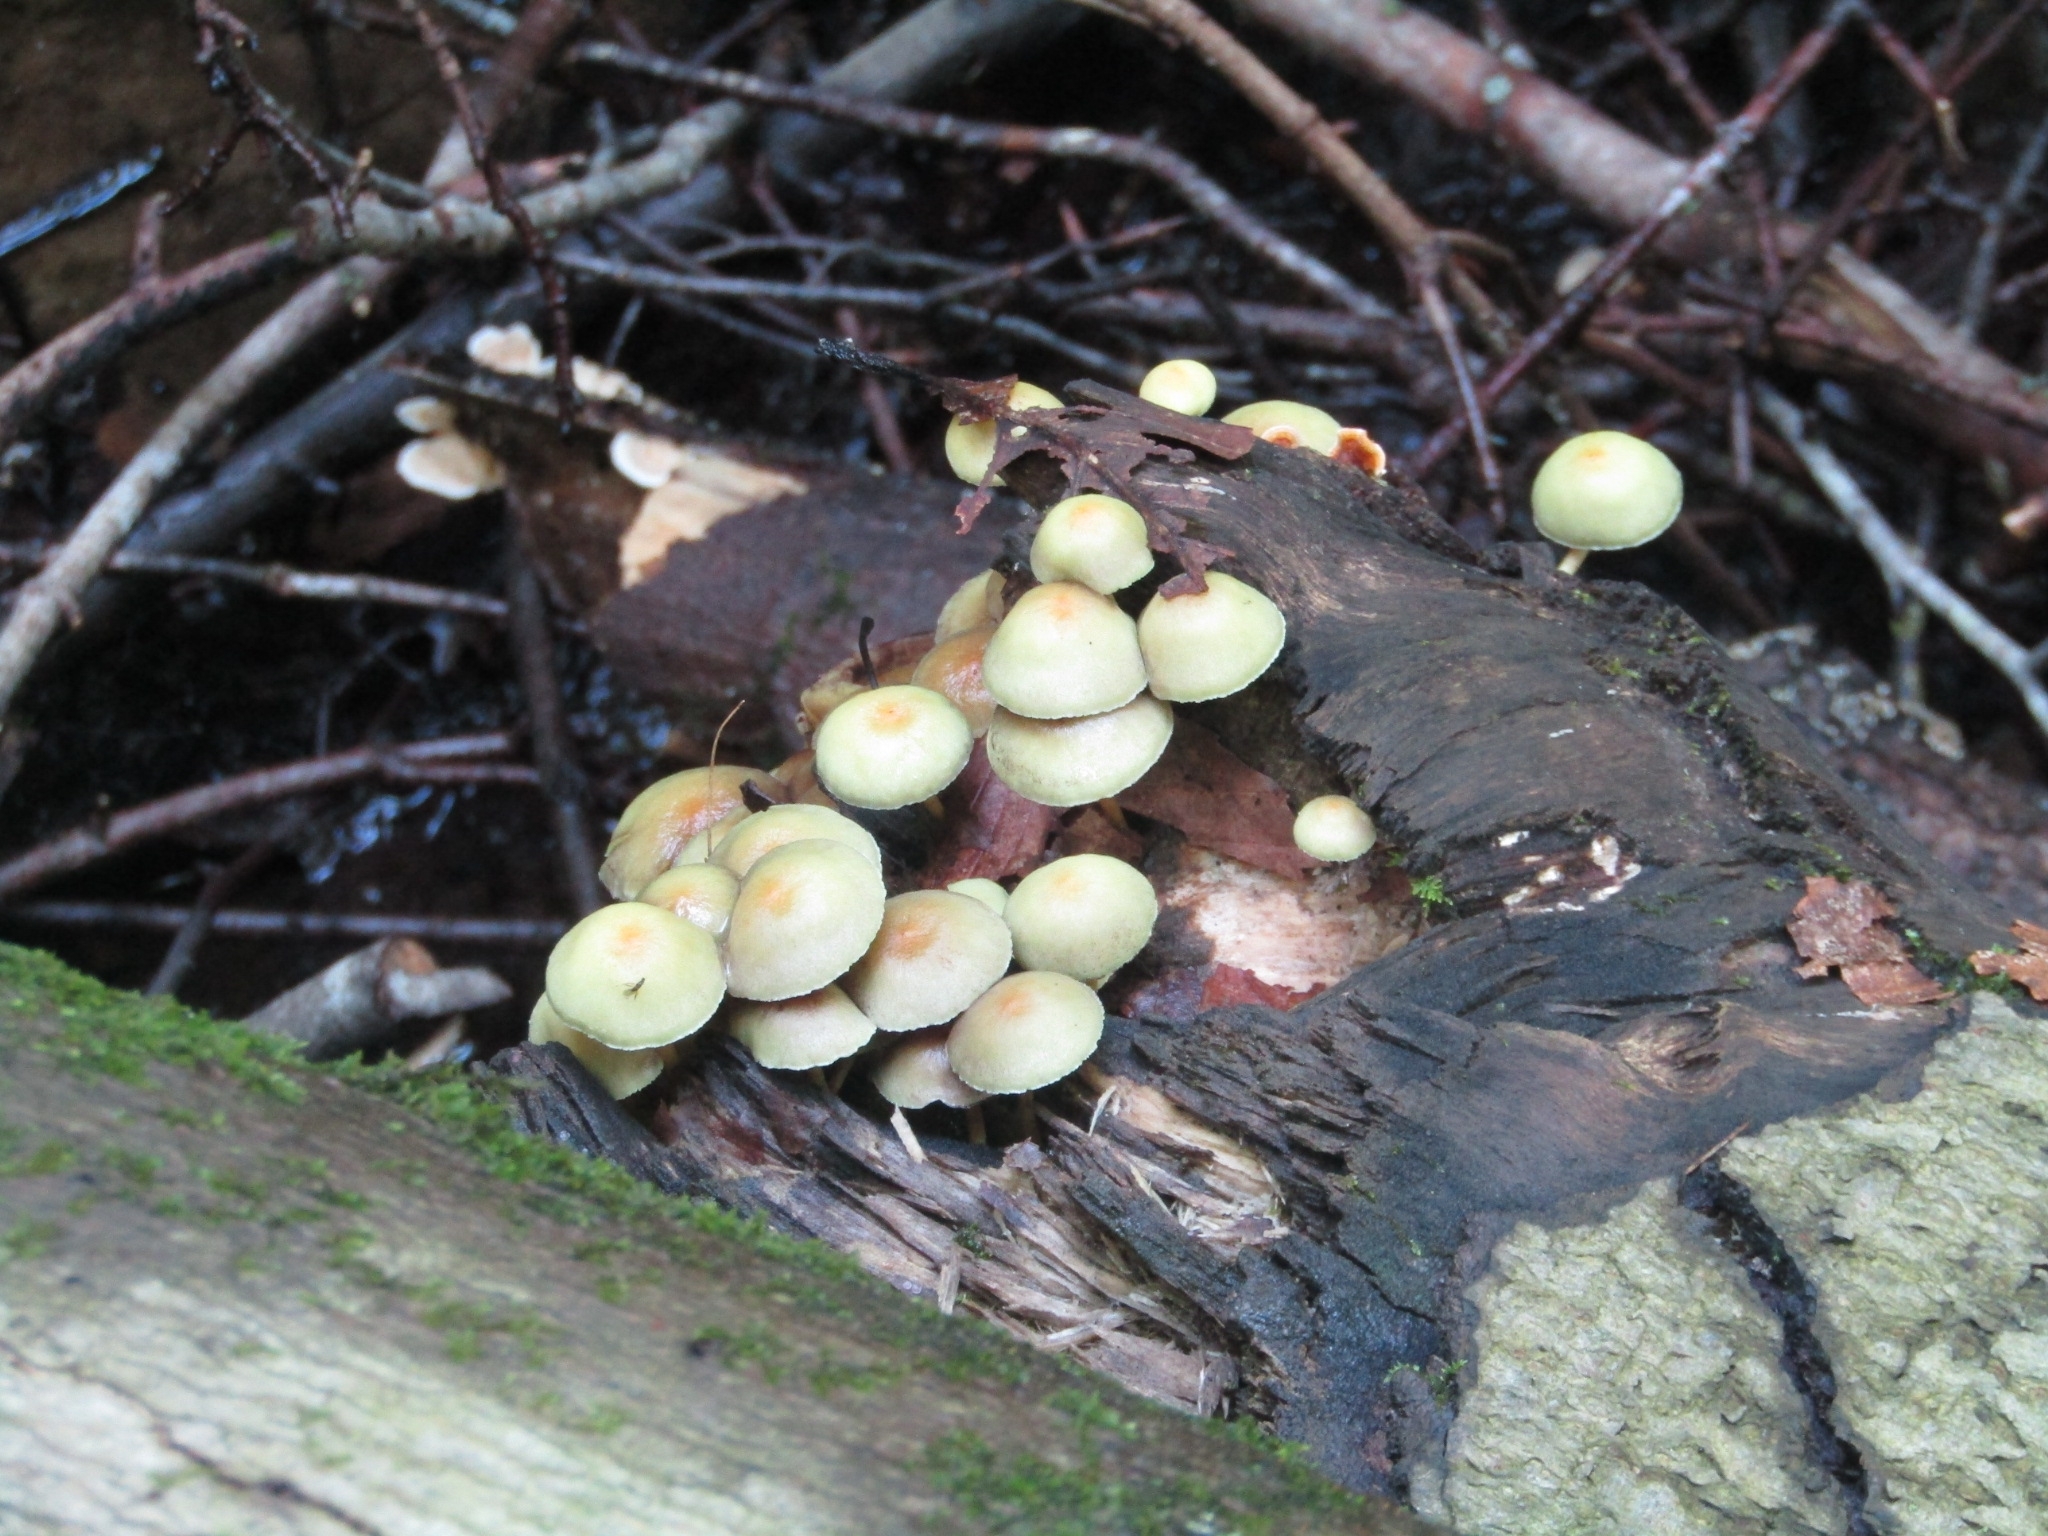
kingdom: Fungi
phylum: Basidiomycota
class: Agaricomycetes
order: Agaricales
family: Strophariaceae
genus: Hypholoma
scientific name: Hypholoma fasciculare
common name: Sulphur tuft
